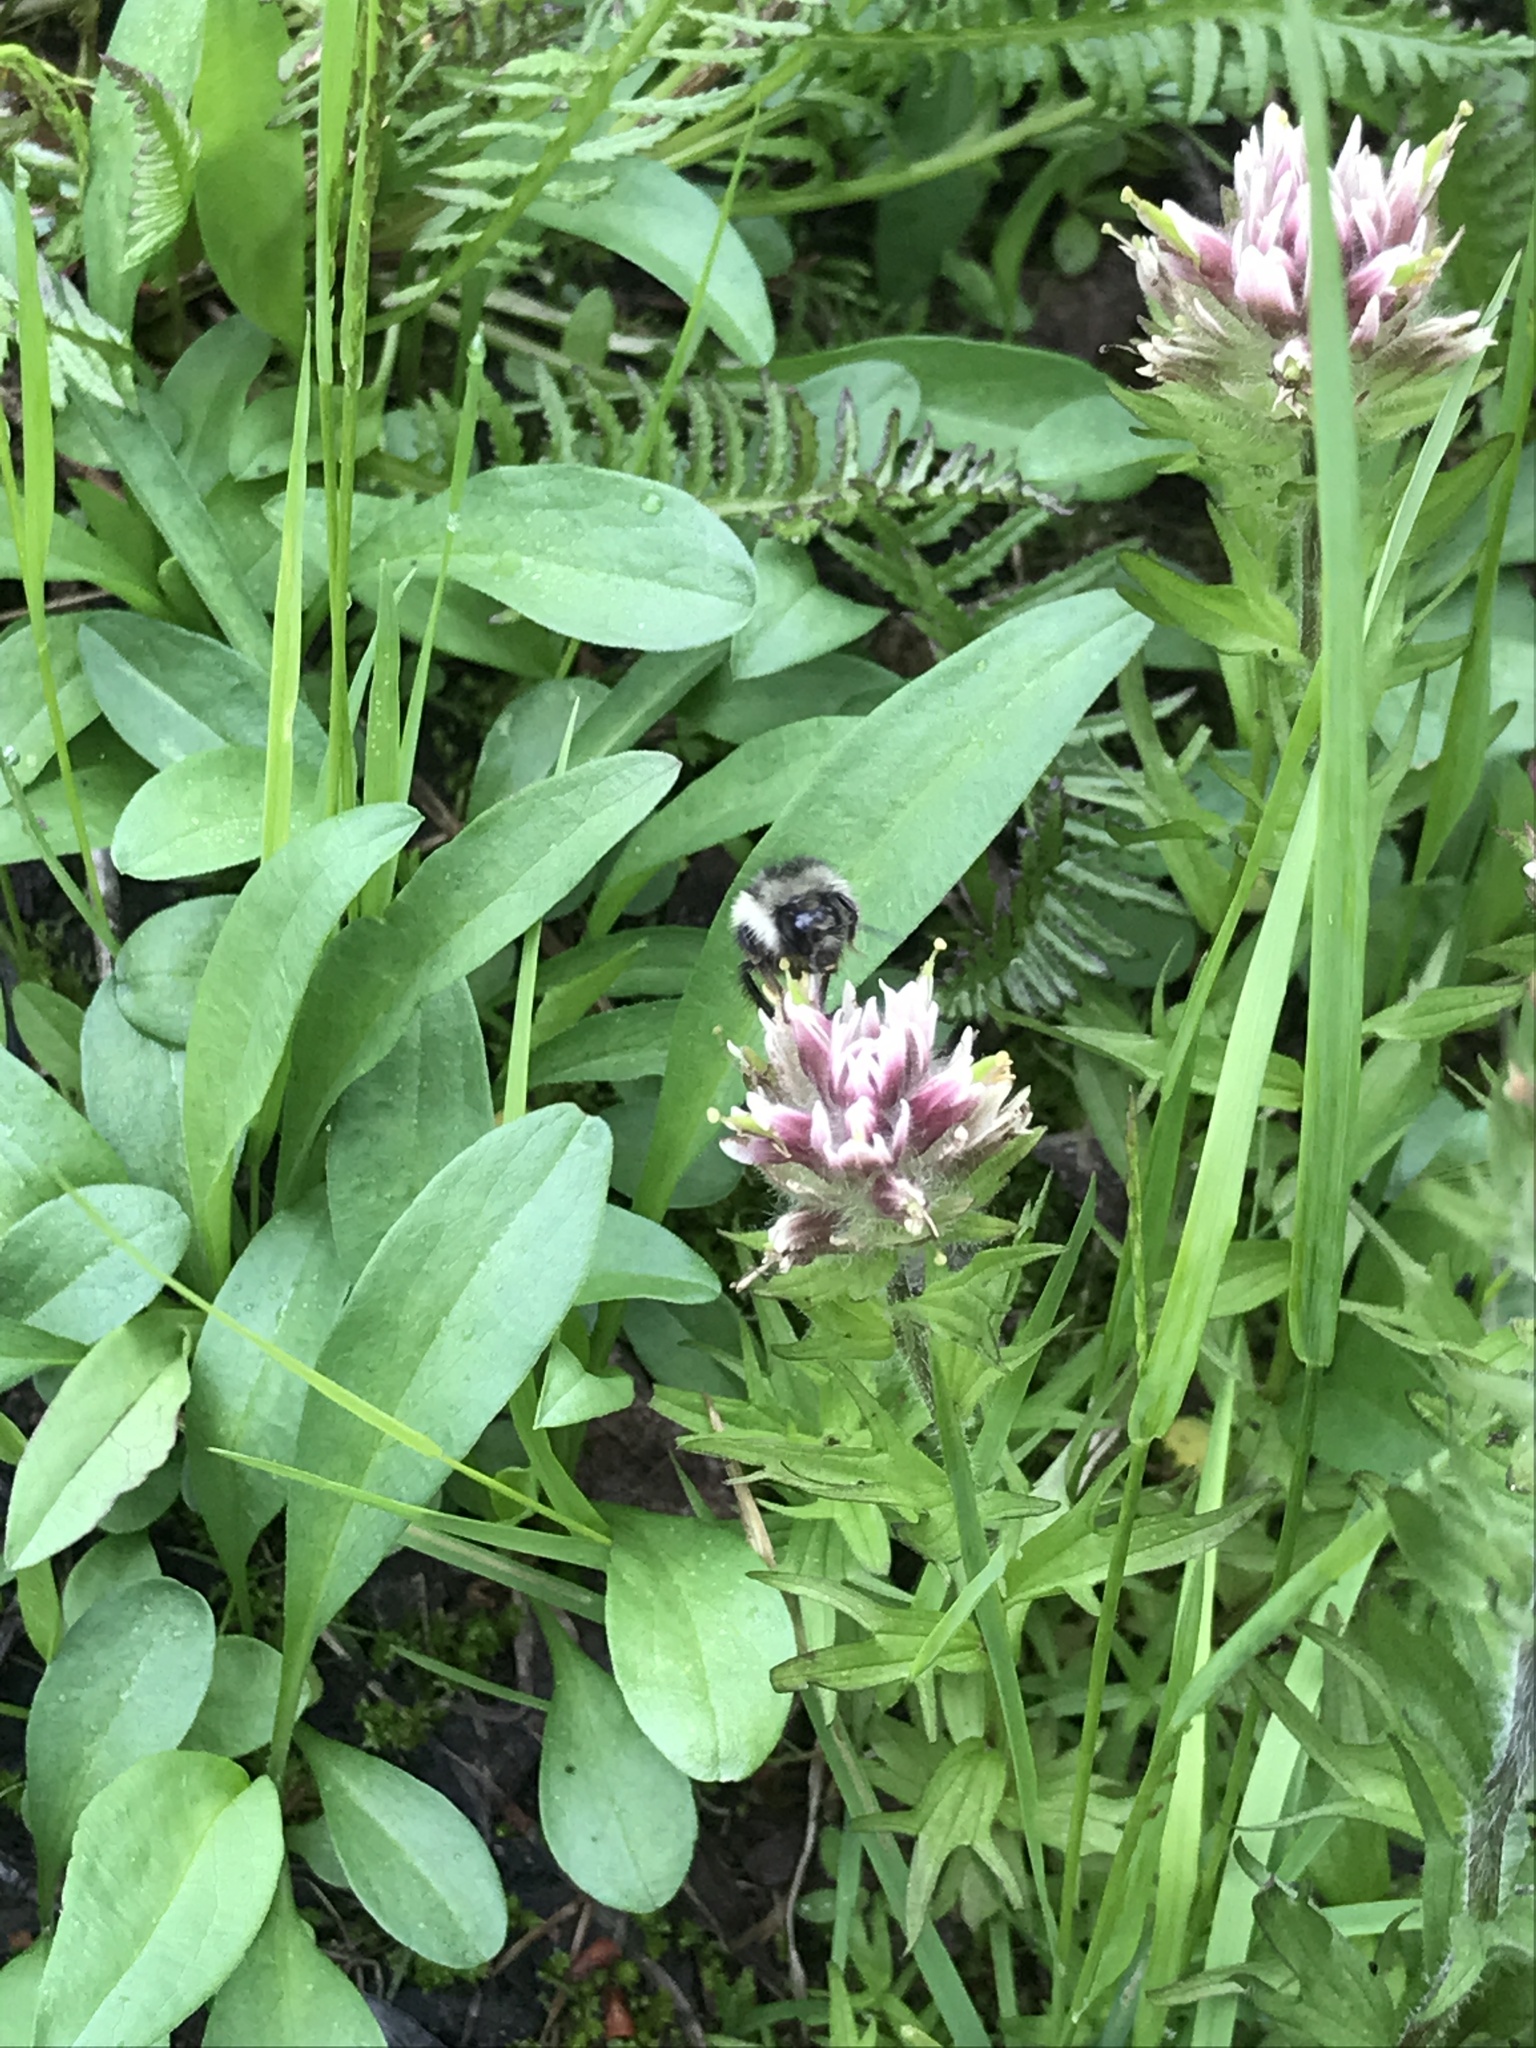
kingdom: Plantae
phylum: Tracheophyta
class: Magnoliopsida
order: Lamiales
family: Orobanchaceae
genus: Castilleja
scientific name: Castilleja parviflora
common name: Mountain paintbrush
